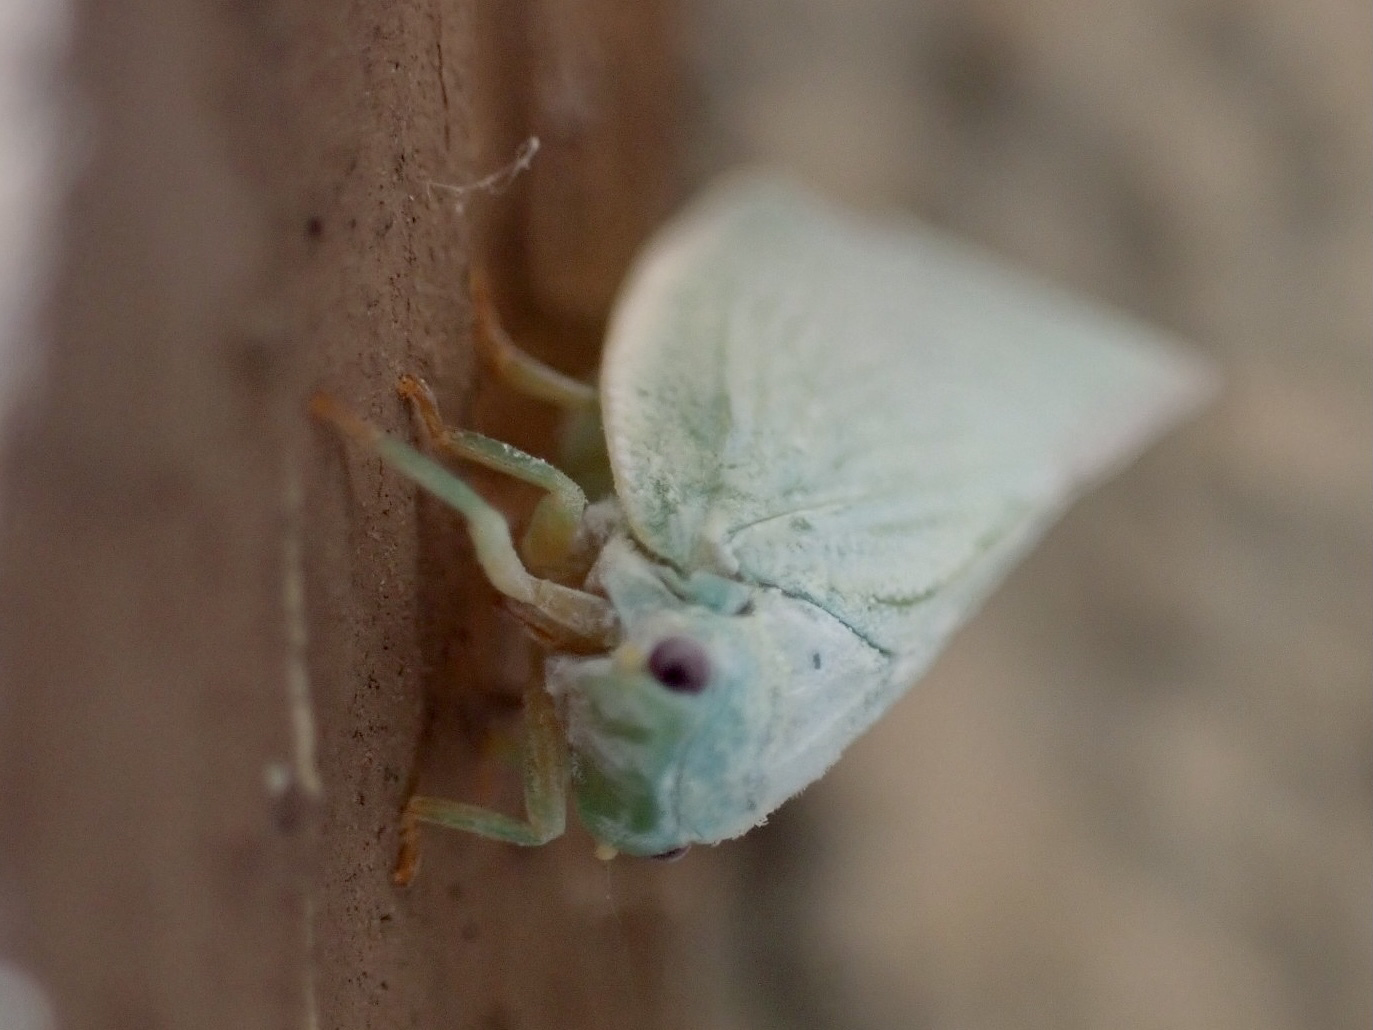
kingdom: Animalia
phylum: Arthropoda
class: Insecta
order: Hemiptera
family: Flatidae
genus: Flatormenis
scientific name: Flatormenis proxima
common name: Northern flatid planthopper
